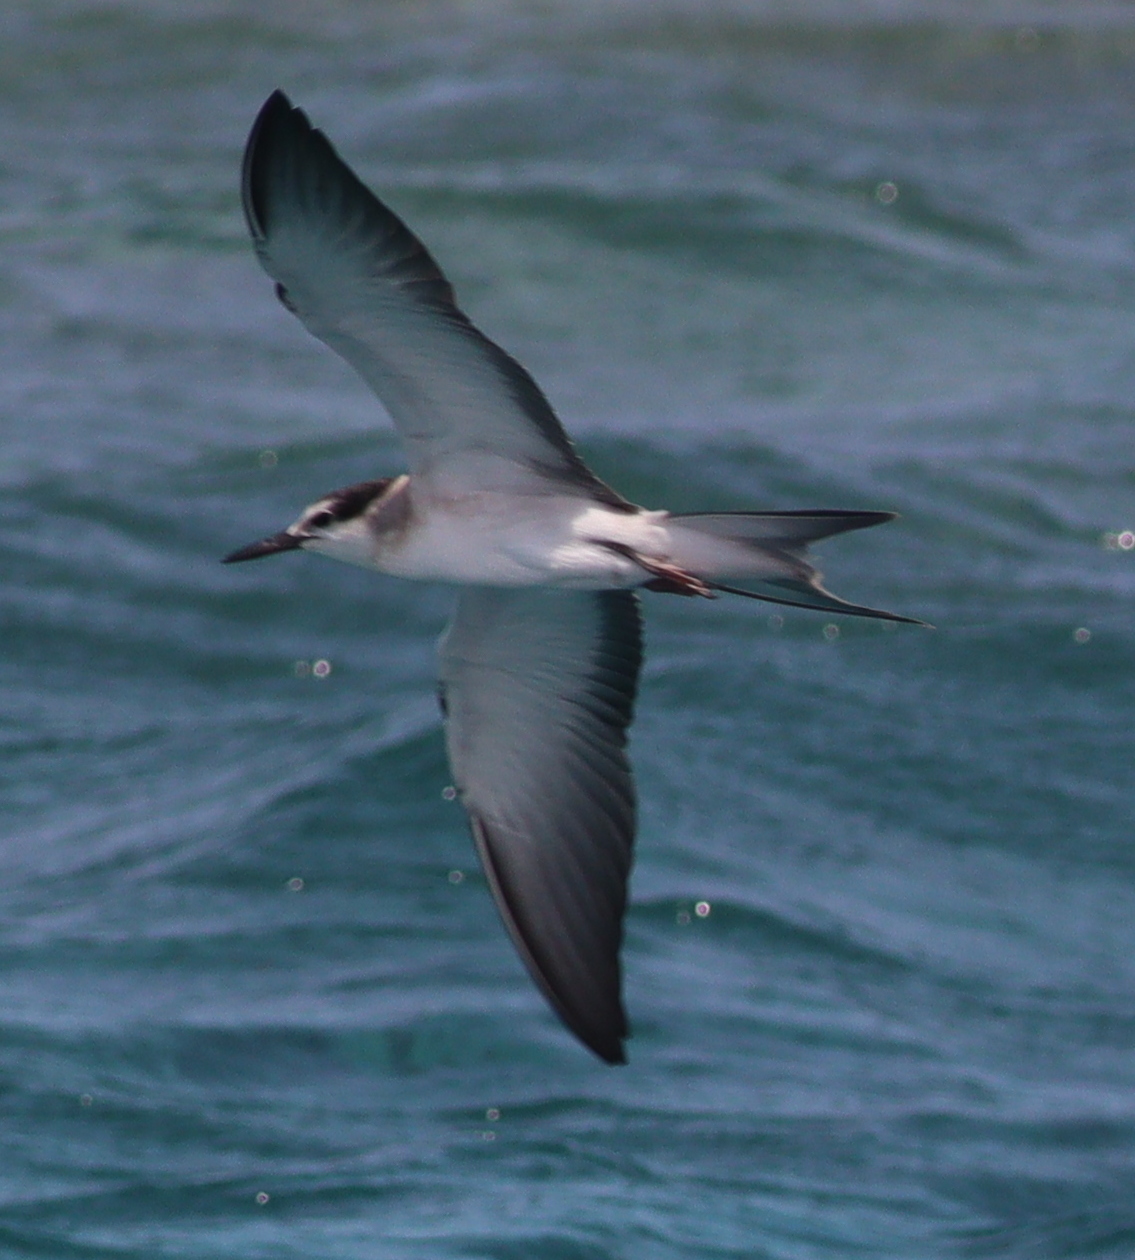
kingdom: Animalia
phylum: Chordata
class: Aves
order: Charadriiformes
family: Laridae
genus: Onychoprion
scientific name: Onychoprion anaethetus
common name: Bridled tern
